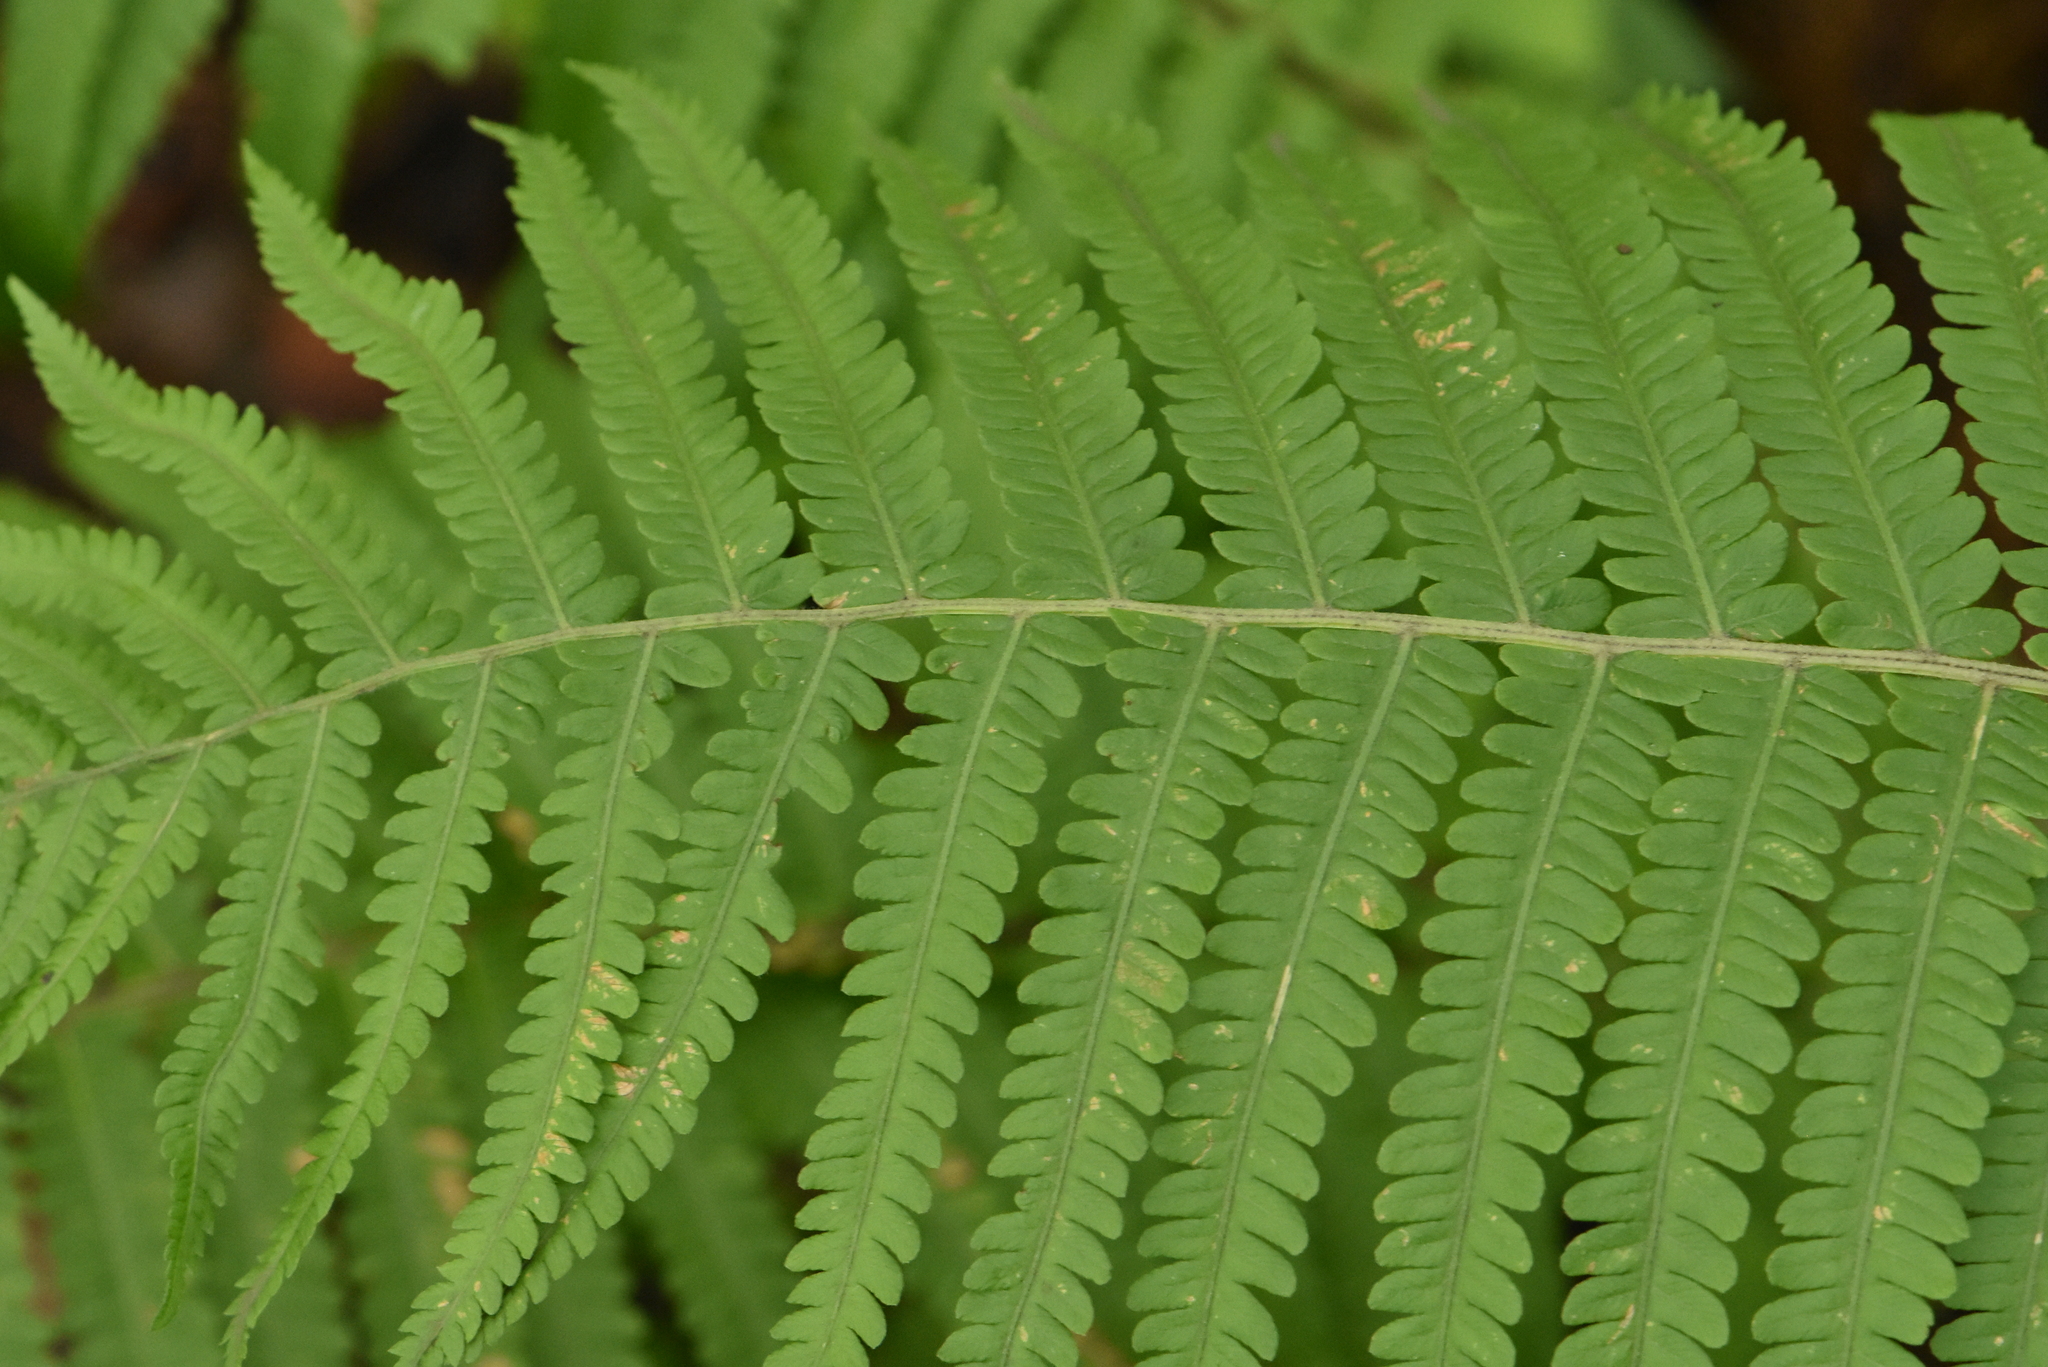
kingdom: Plantae
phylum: Tracheophyta
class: Polypodiopsida
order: Polypodiales
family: Onocleaceae
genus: Matteuccia
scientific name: Matteuccia struthiopteris
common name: Ostrich fern
